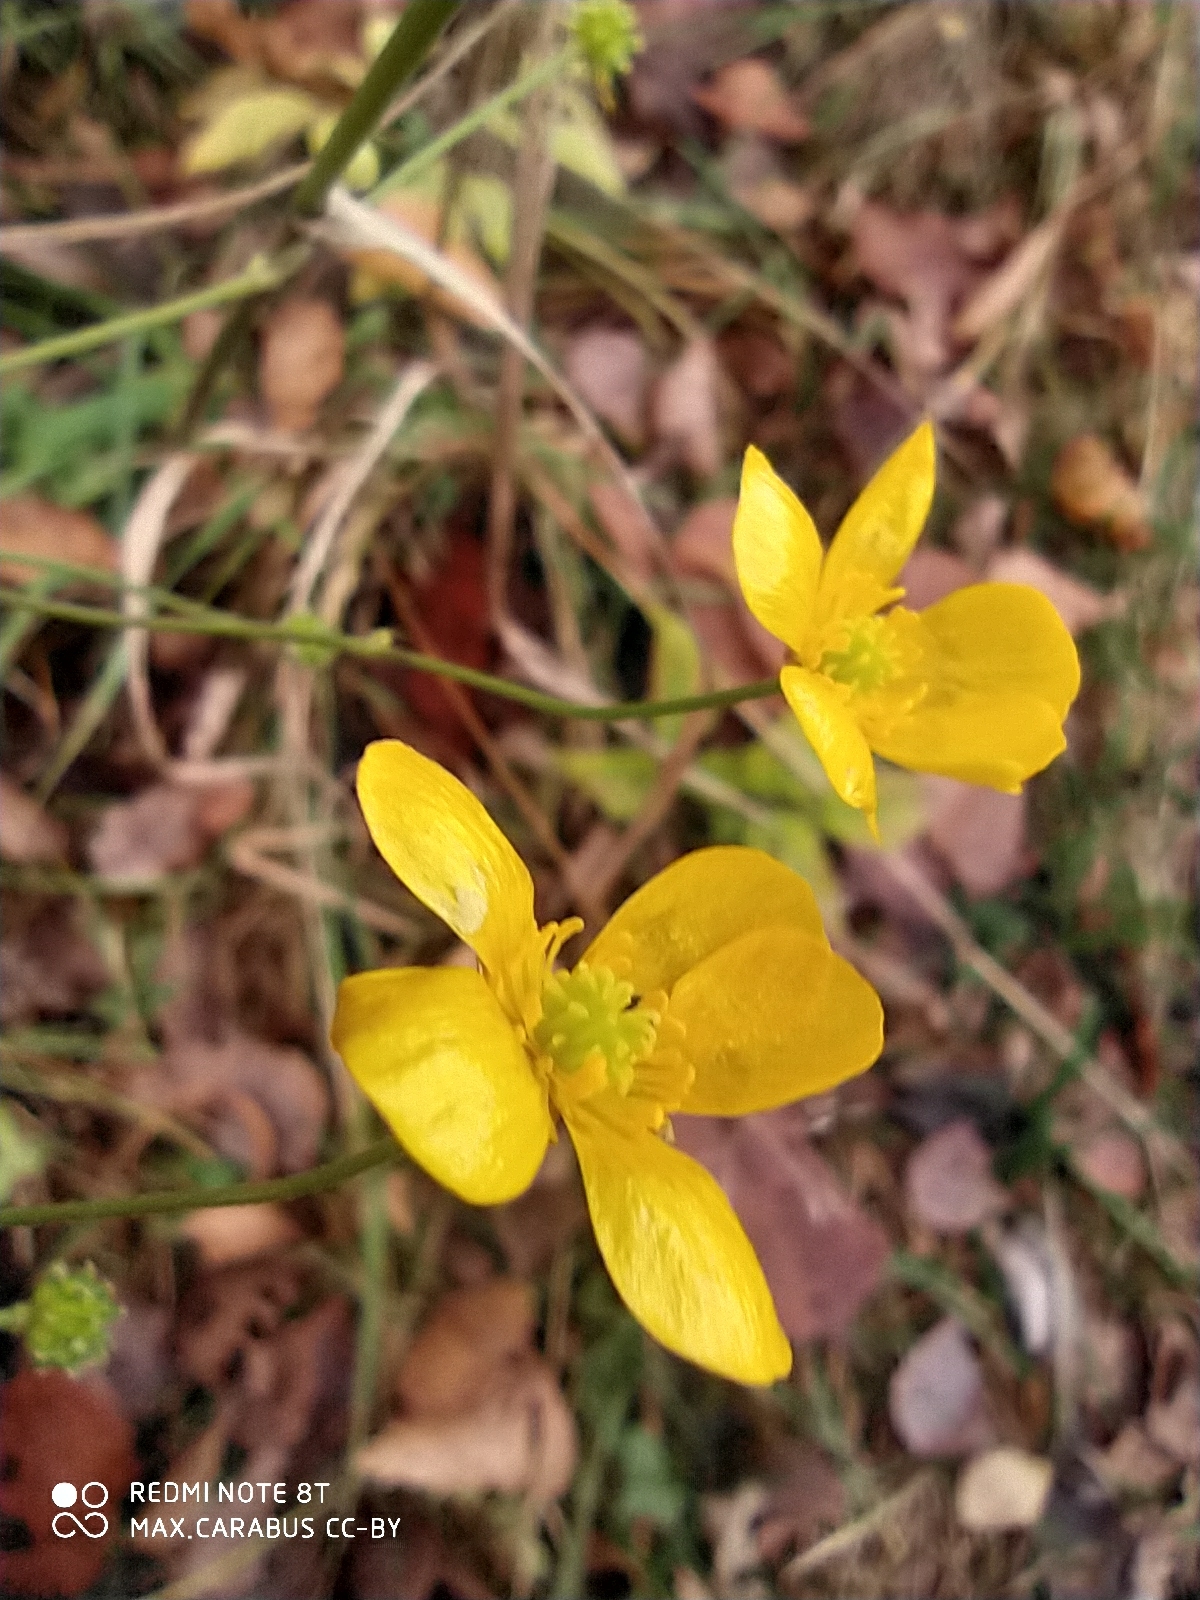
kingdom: Plantae
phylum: Tracheophyta
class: Magnoliopsida
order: Ranunculales
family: Ranunculaceae
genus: Ranunculus
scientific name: Ranunculus acris
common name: Meadow buttercup
